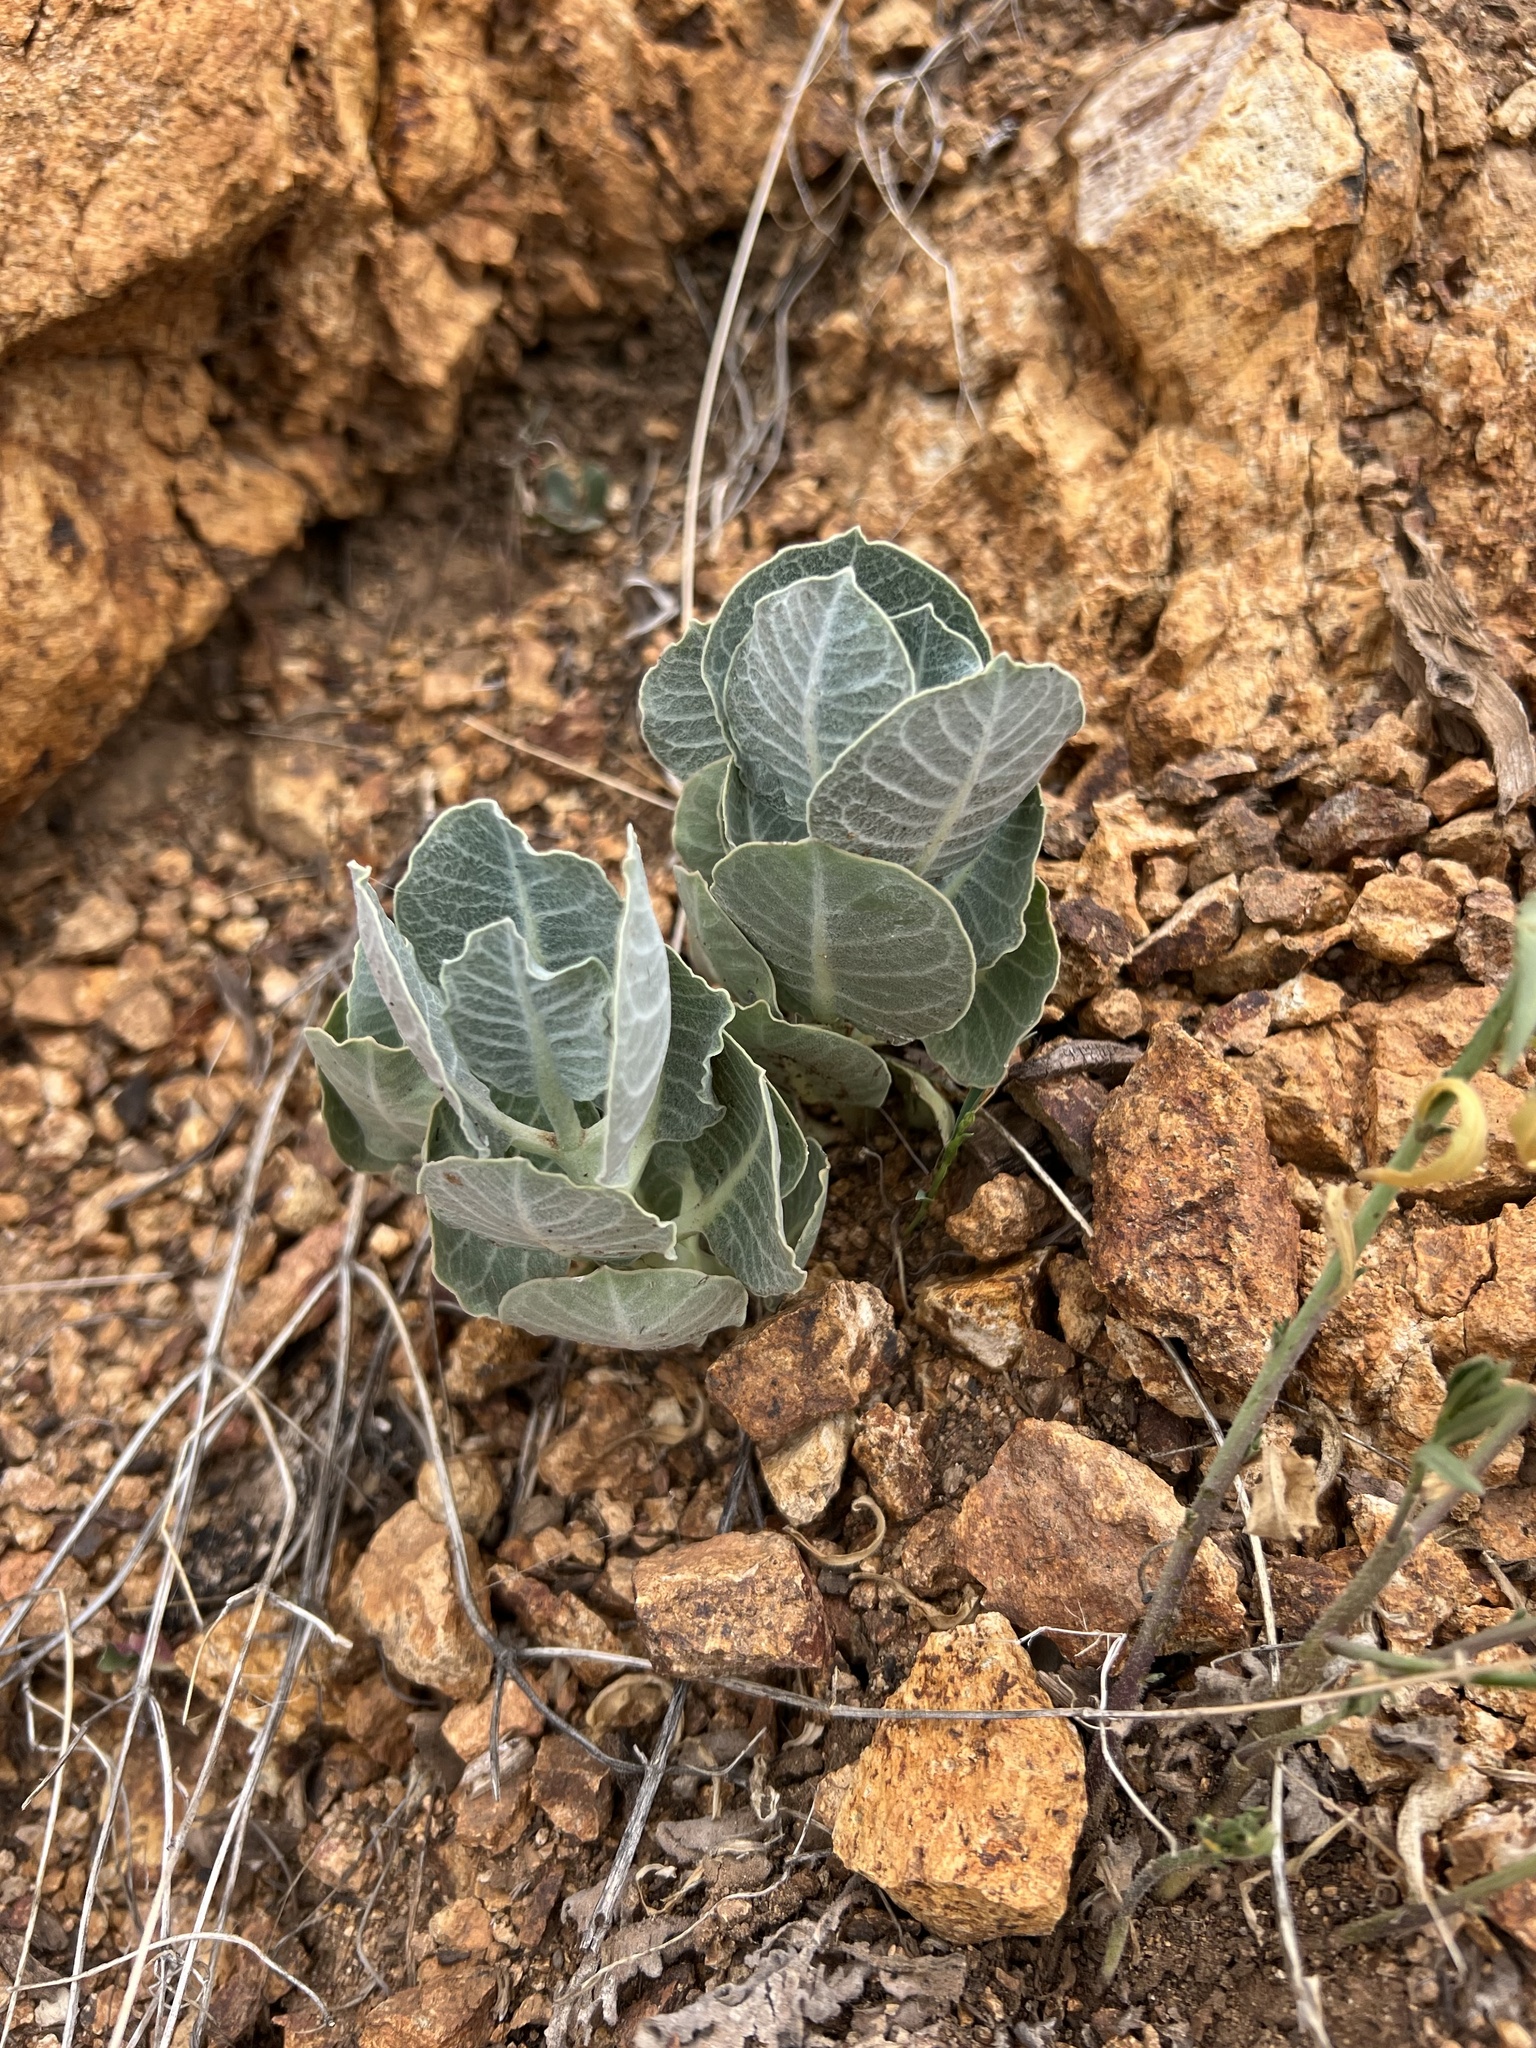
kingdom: Plantae
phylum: Tracheophyta
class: Magnoliopsida
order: Gentianales
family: Apocynaceae
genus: Asclepias
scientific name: Asclepias nummularia
